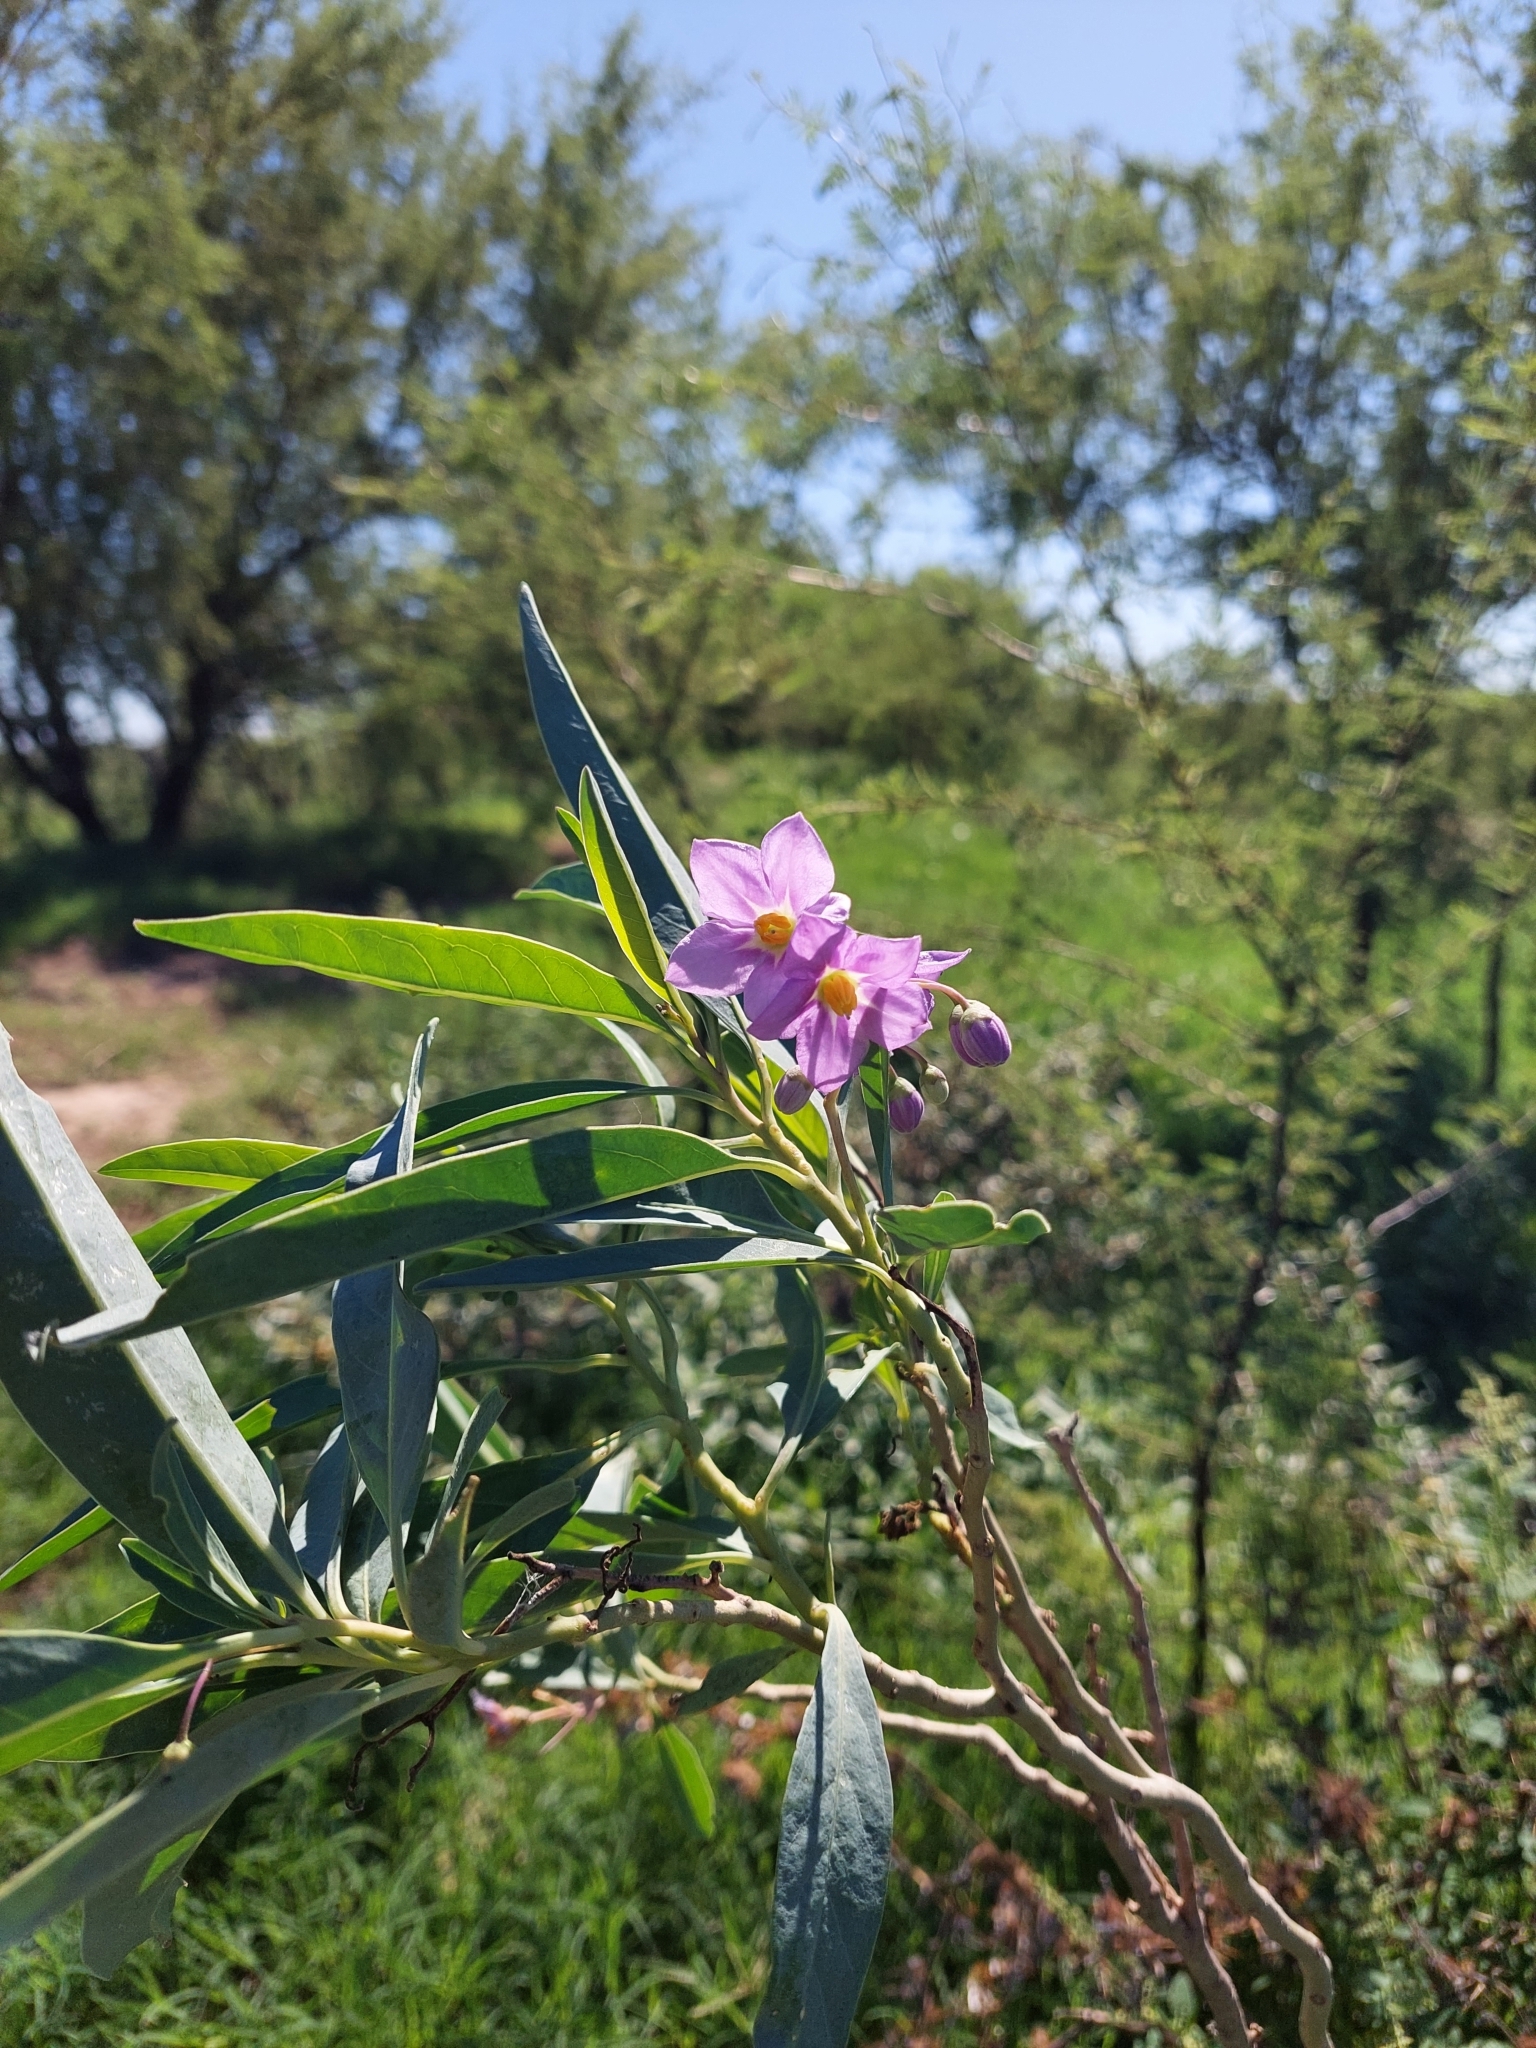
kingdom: Plantae
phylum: Tracheophyta
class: Magnoliopsida
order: Solanales
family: Solanaceae
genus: Solanum
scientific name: Solanum glaucophyllum
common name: Waxyleaf nightshade
